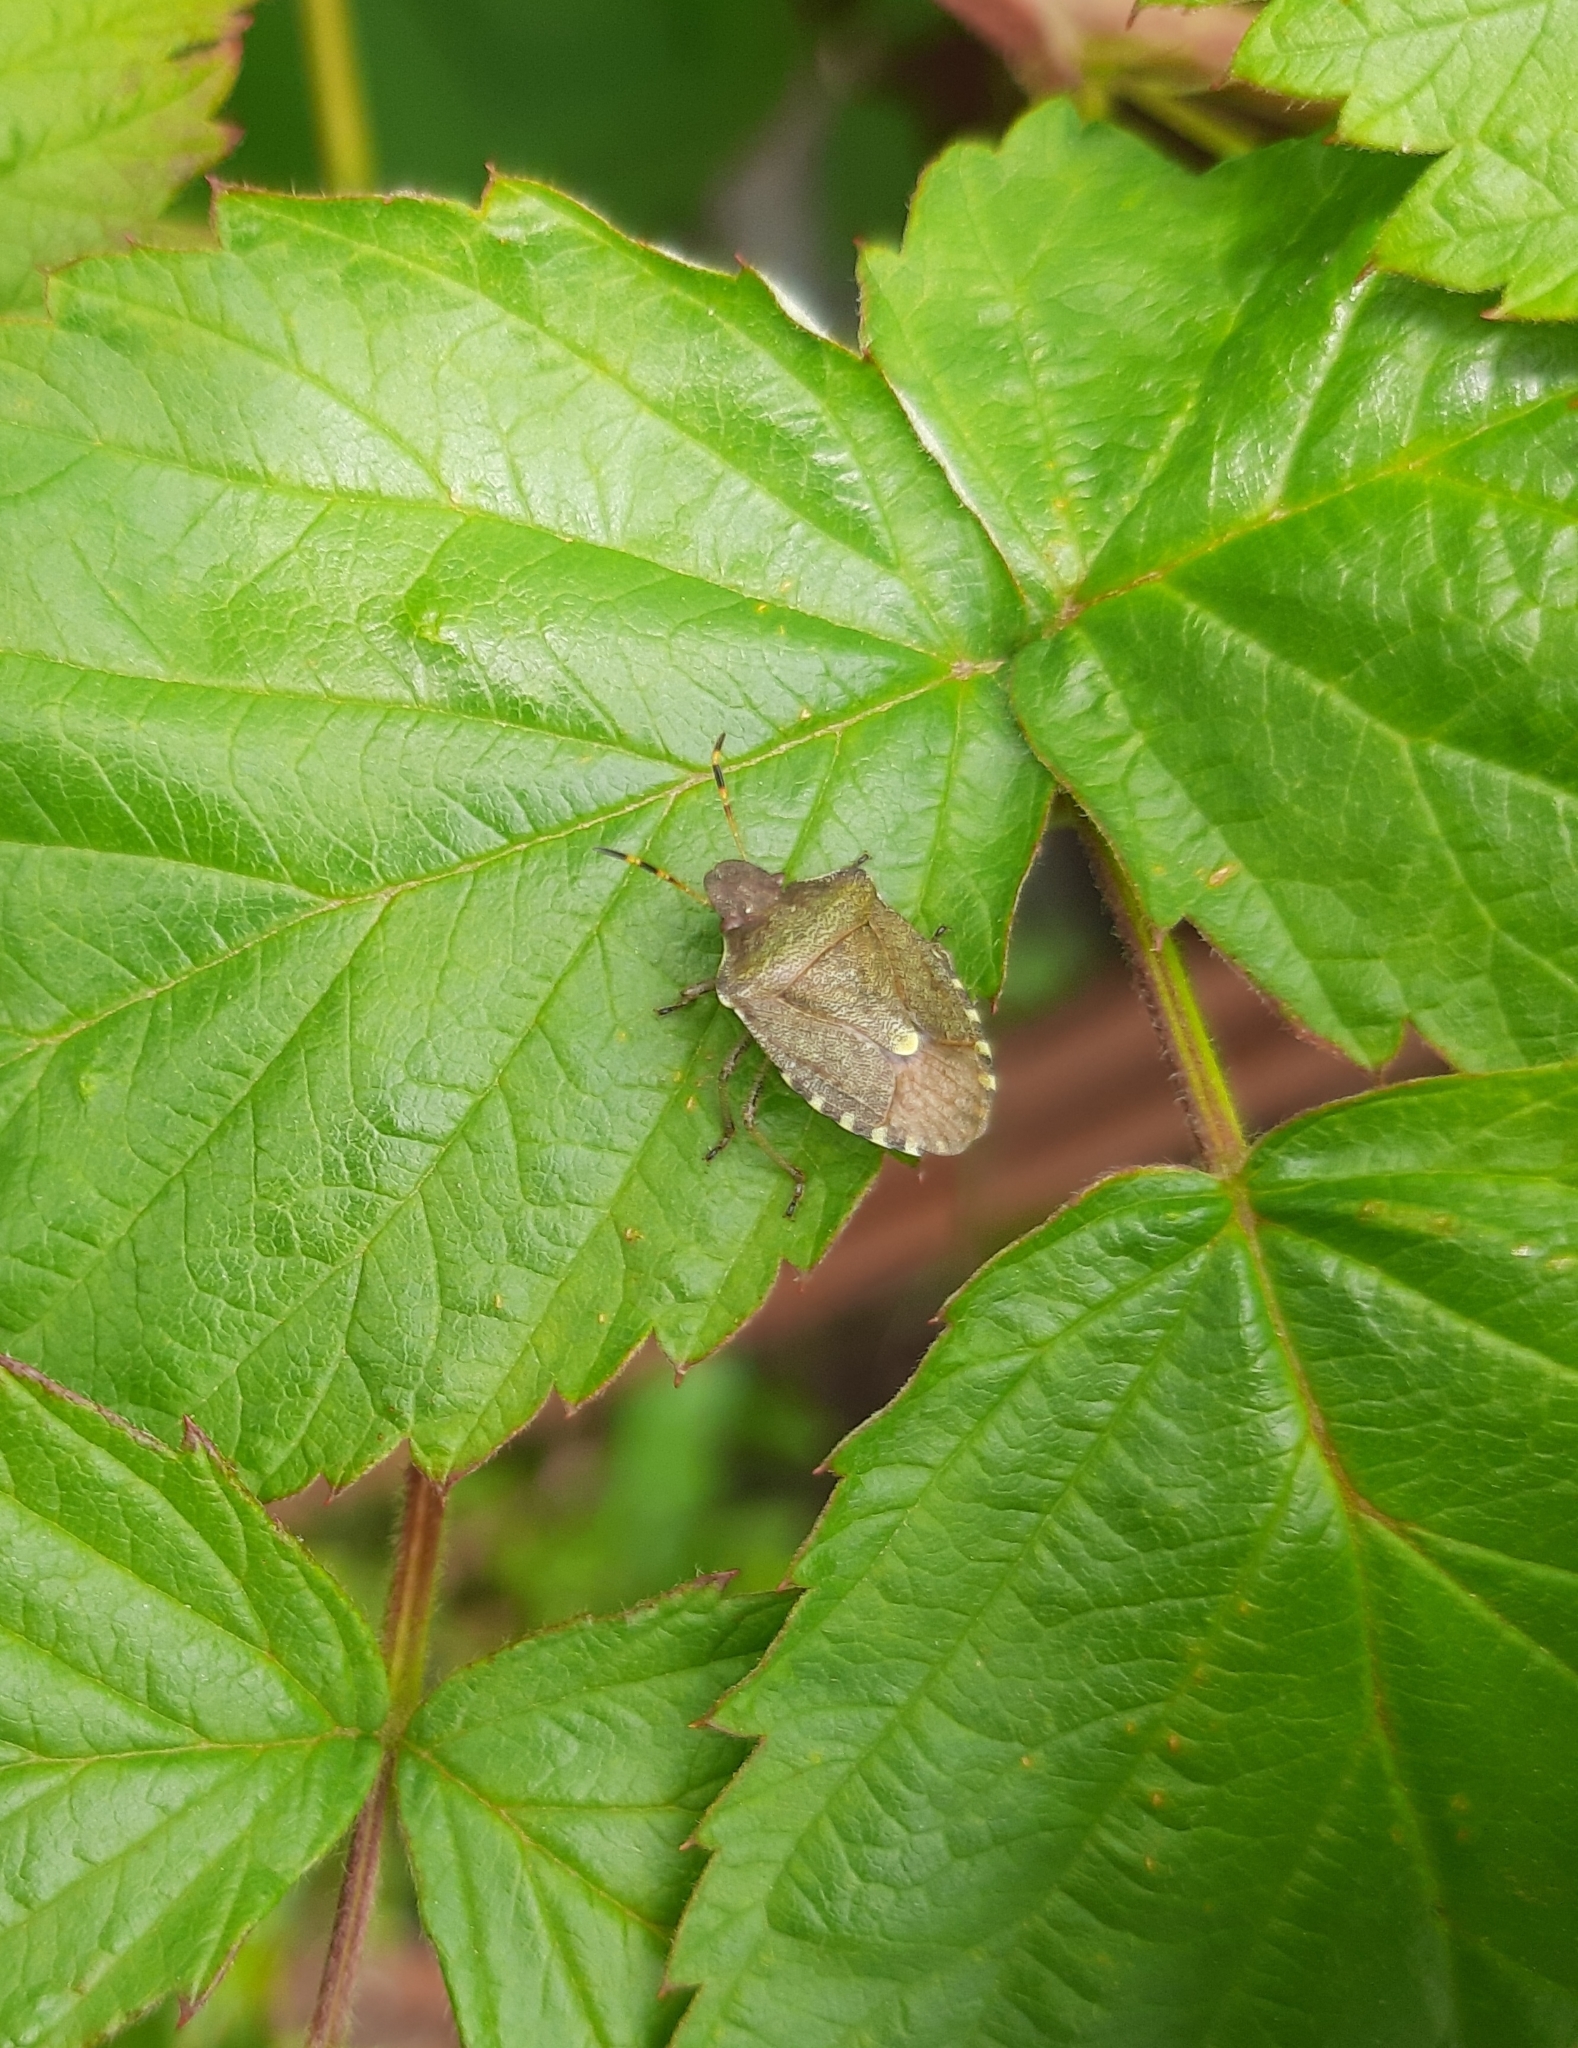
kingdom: Animalia
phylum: Arthropoda
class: Insecta
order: Hemiptera
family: Pentatomidae
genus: Holcostethus
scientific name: Holcostethus strictus
